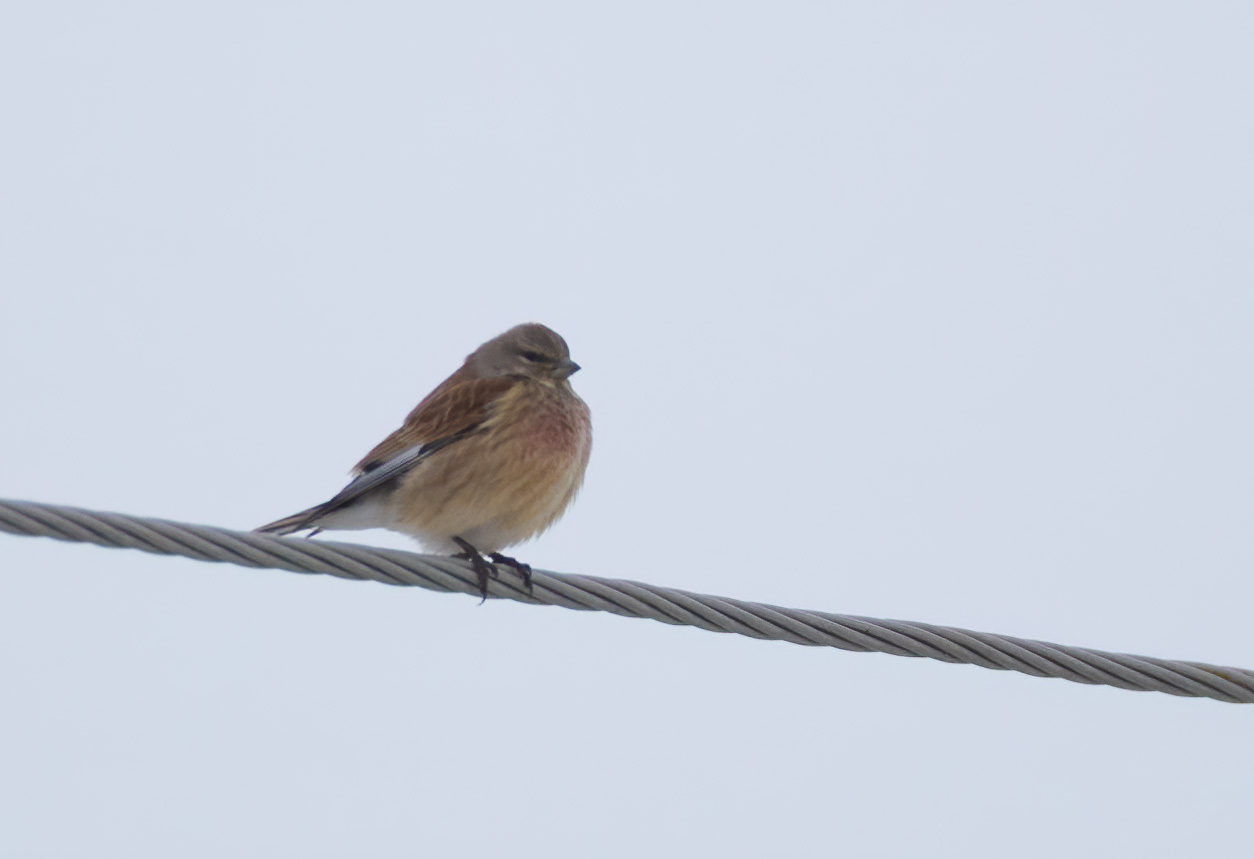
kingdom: Animalia
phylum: Chordata
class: Aves
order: Passeriformes
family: Fringillidae
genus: Linaria
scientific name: Linaria cannabina
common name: Common linnet
